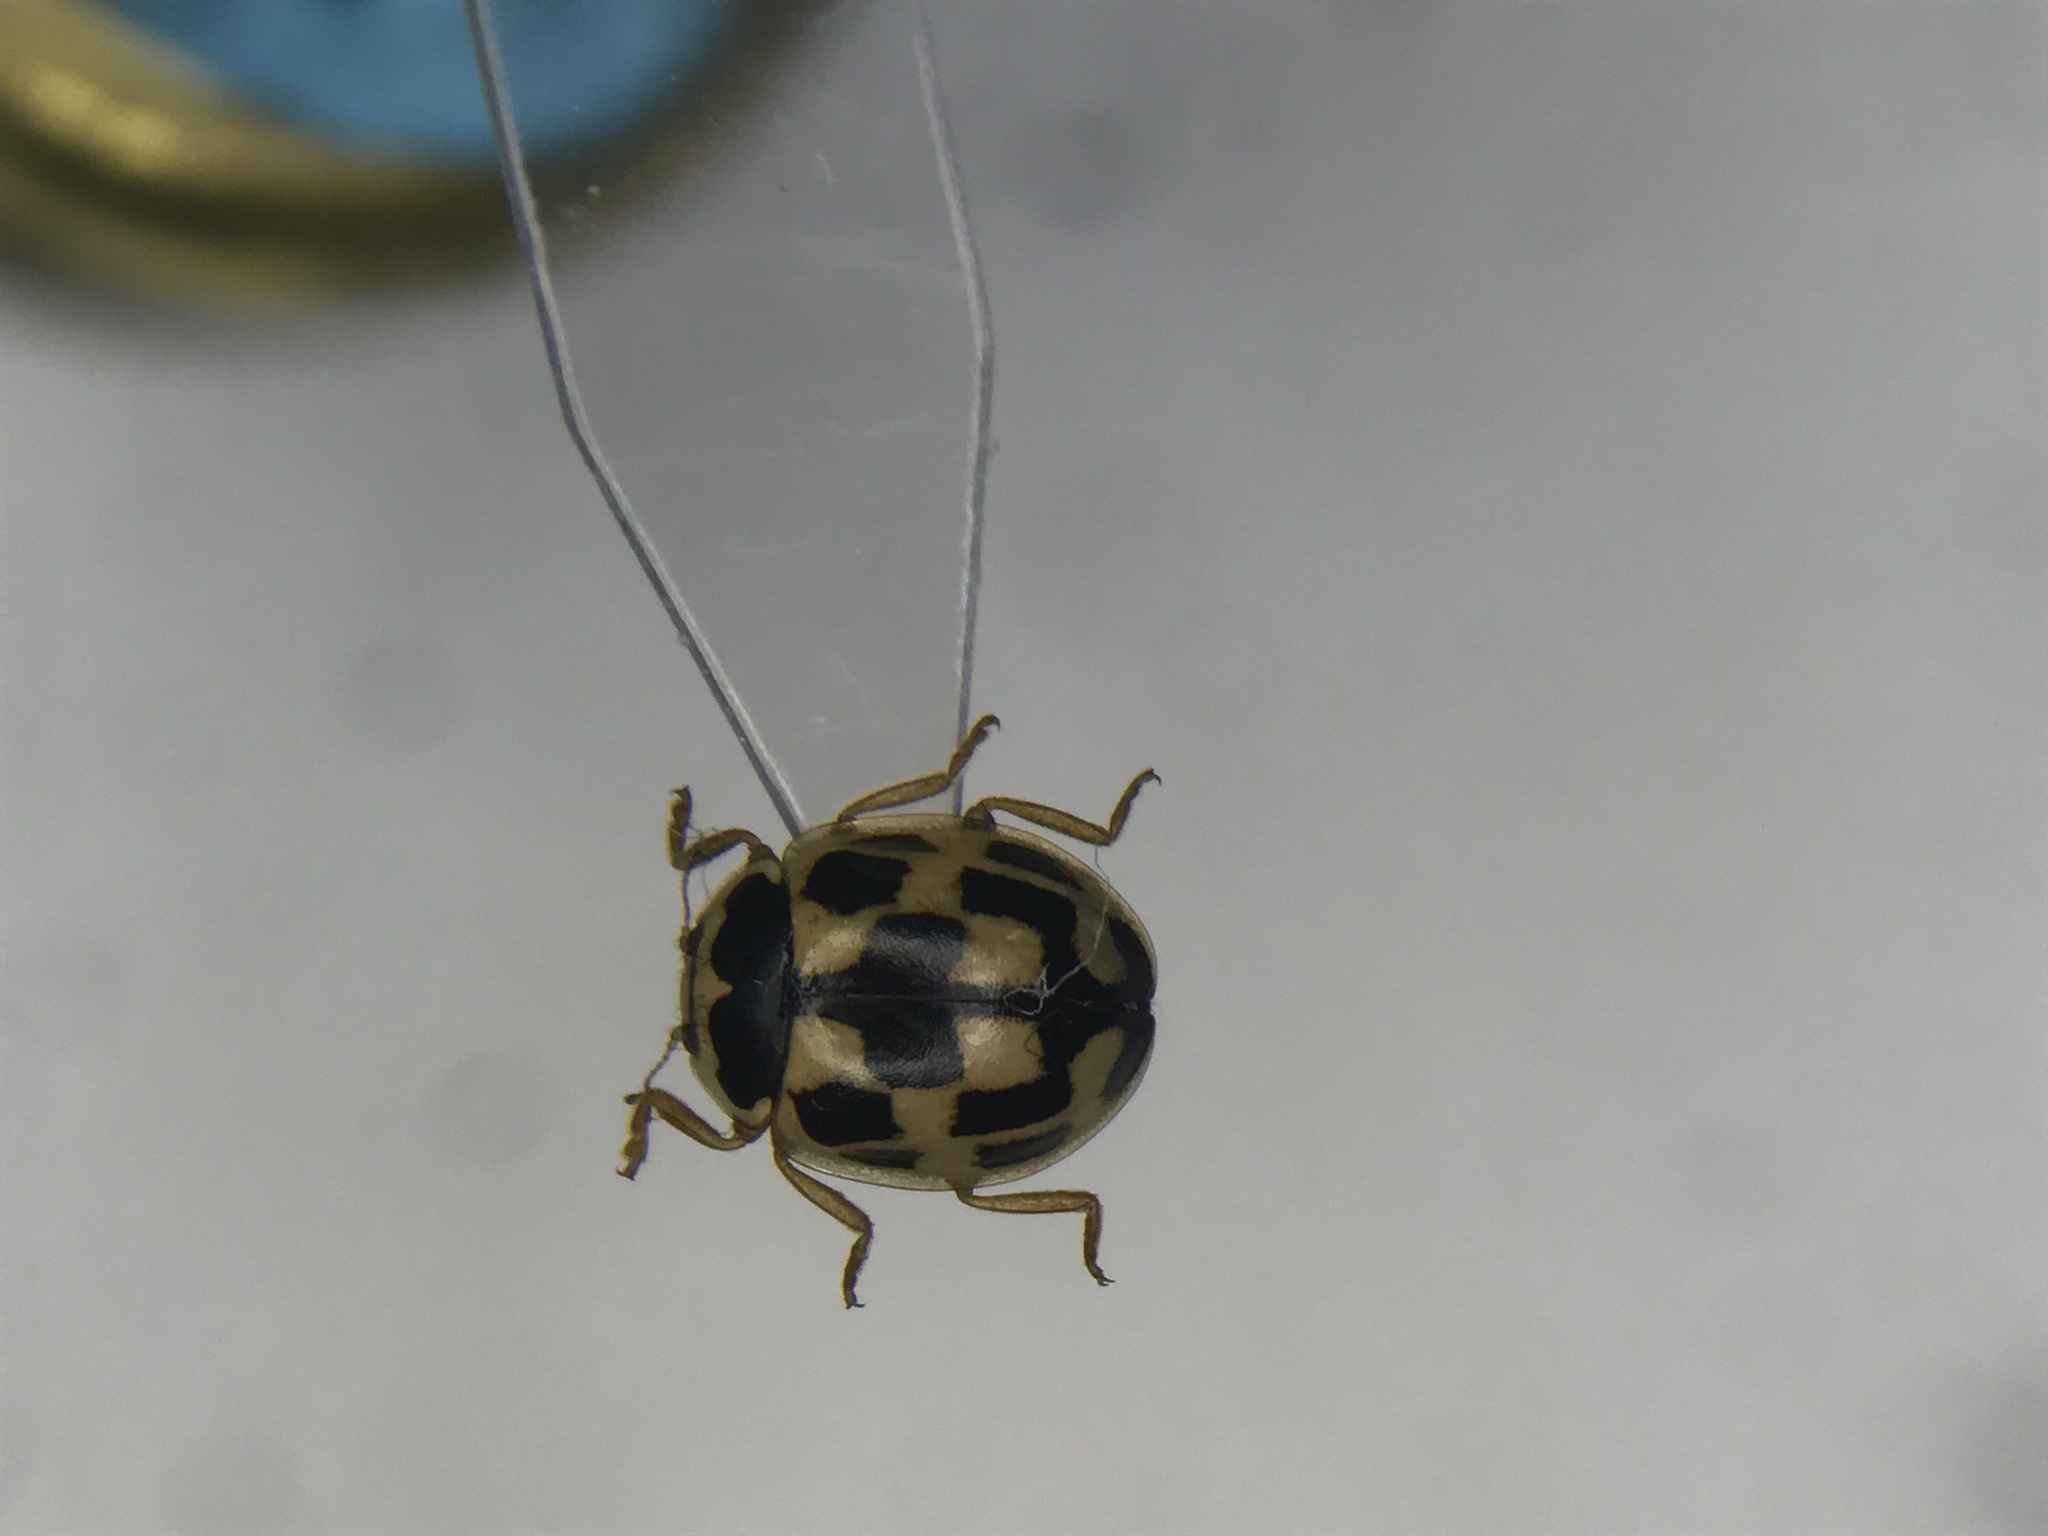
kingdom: Animalia
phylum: Arthropoda
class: Insecta
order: Coleoptera
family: Coccinellidae
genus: Propylaea
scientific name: Propylaea quatuordecimpunctata
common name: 14-spotted ladybird beetle
